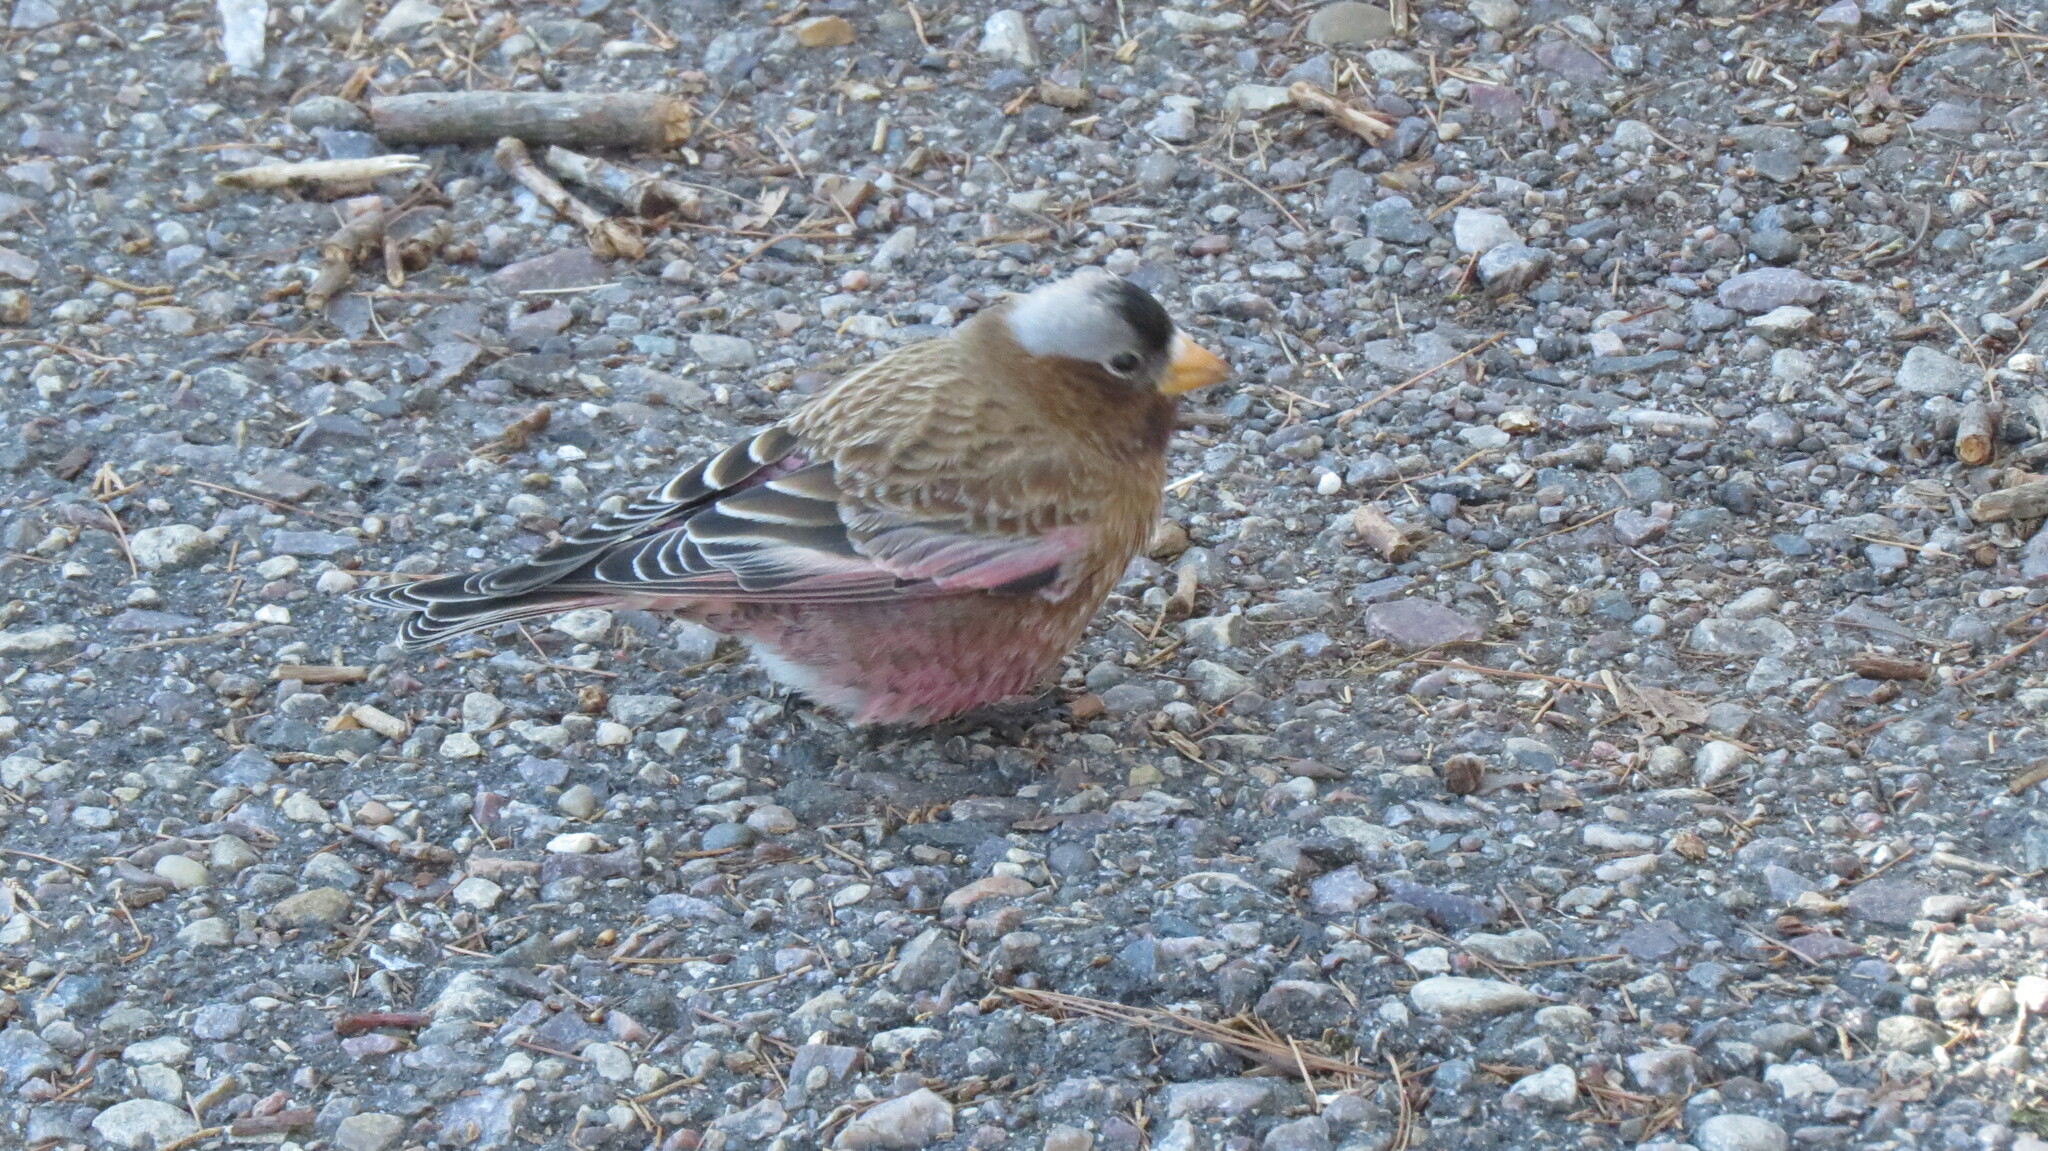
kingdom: Animalia
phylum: Chordata
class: Aves
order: Passeriformes
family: Fringillidae
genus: Leucosticte
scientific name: Leucosticte tephrocotis
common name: Gray-crowned rosy-finch
